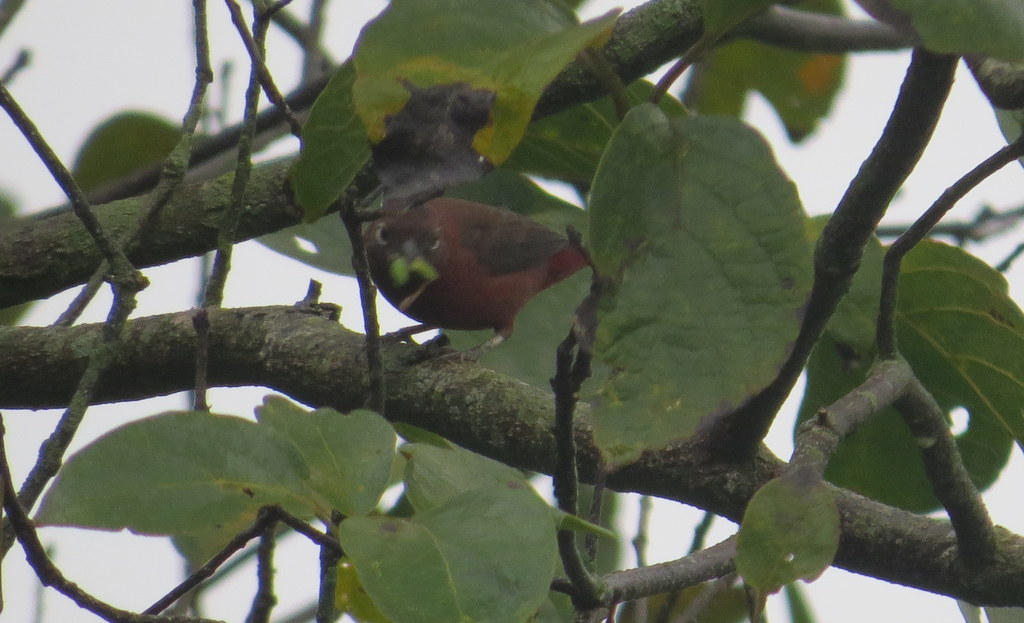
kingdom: Animalia
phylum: Chordata
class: Aves
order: Passeriformes
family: Thraupidae
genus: Coryphospingus
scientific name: Coryphospingus cucullatus
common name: Red pileated finch
